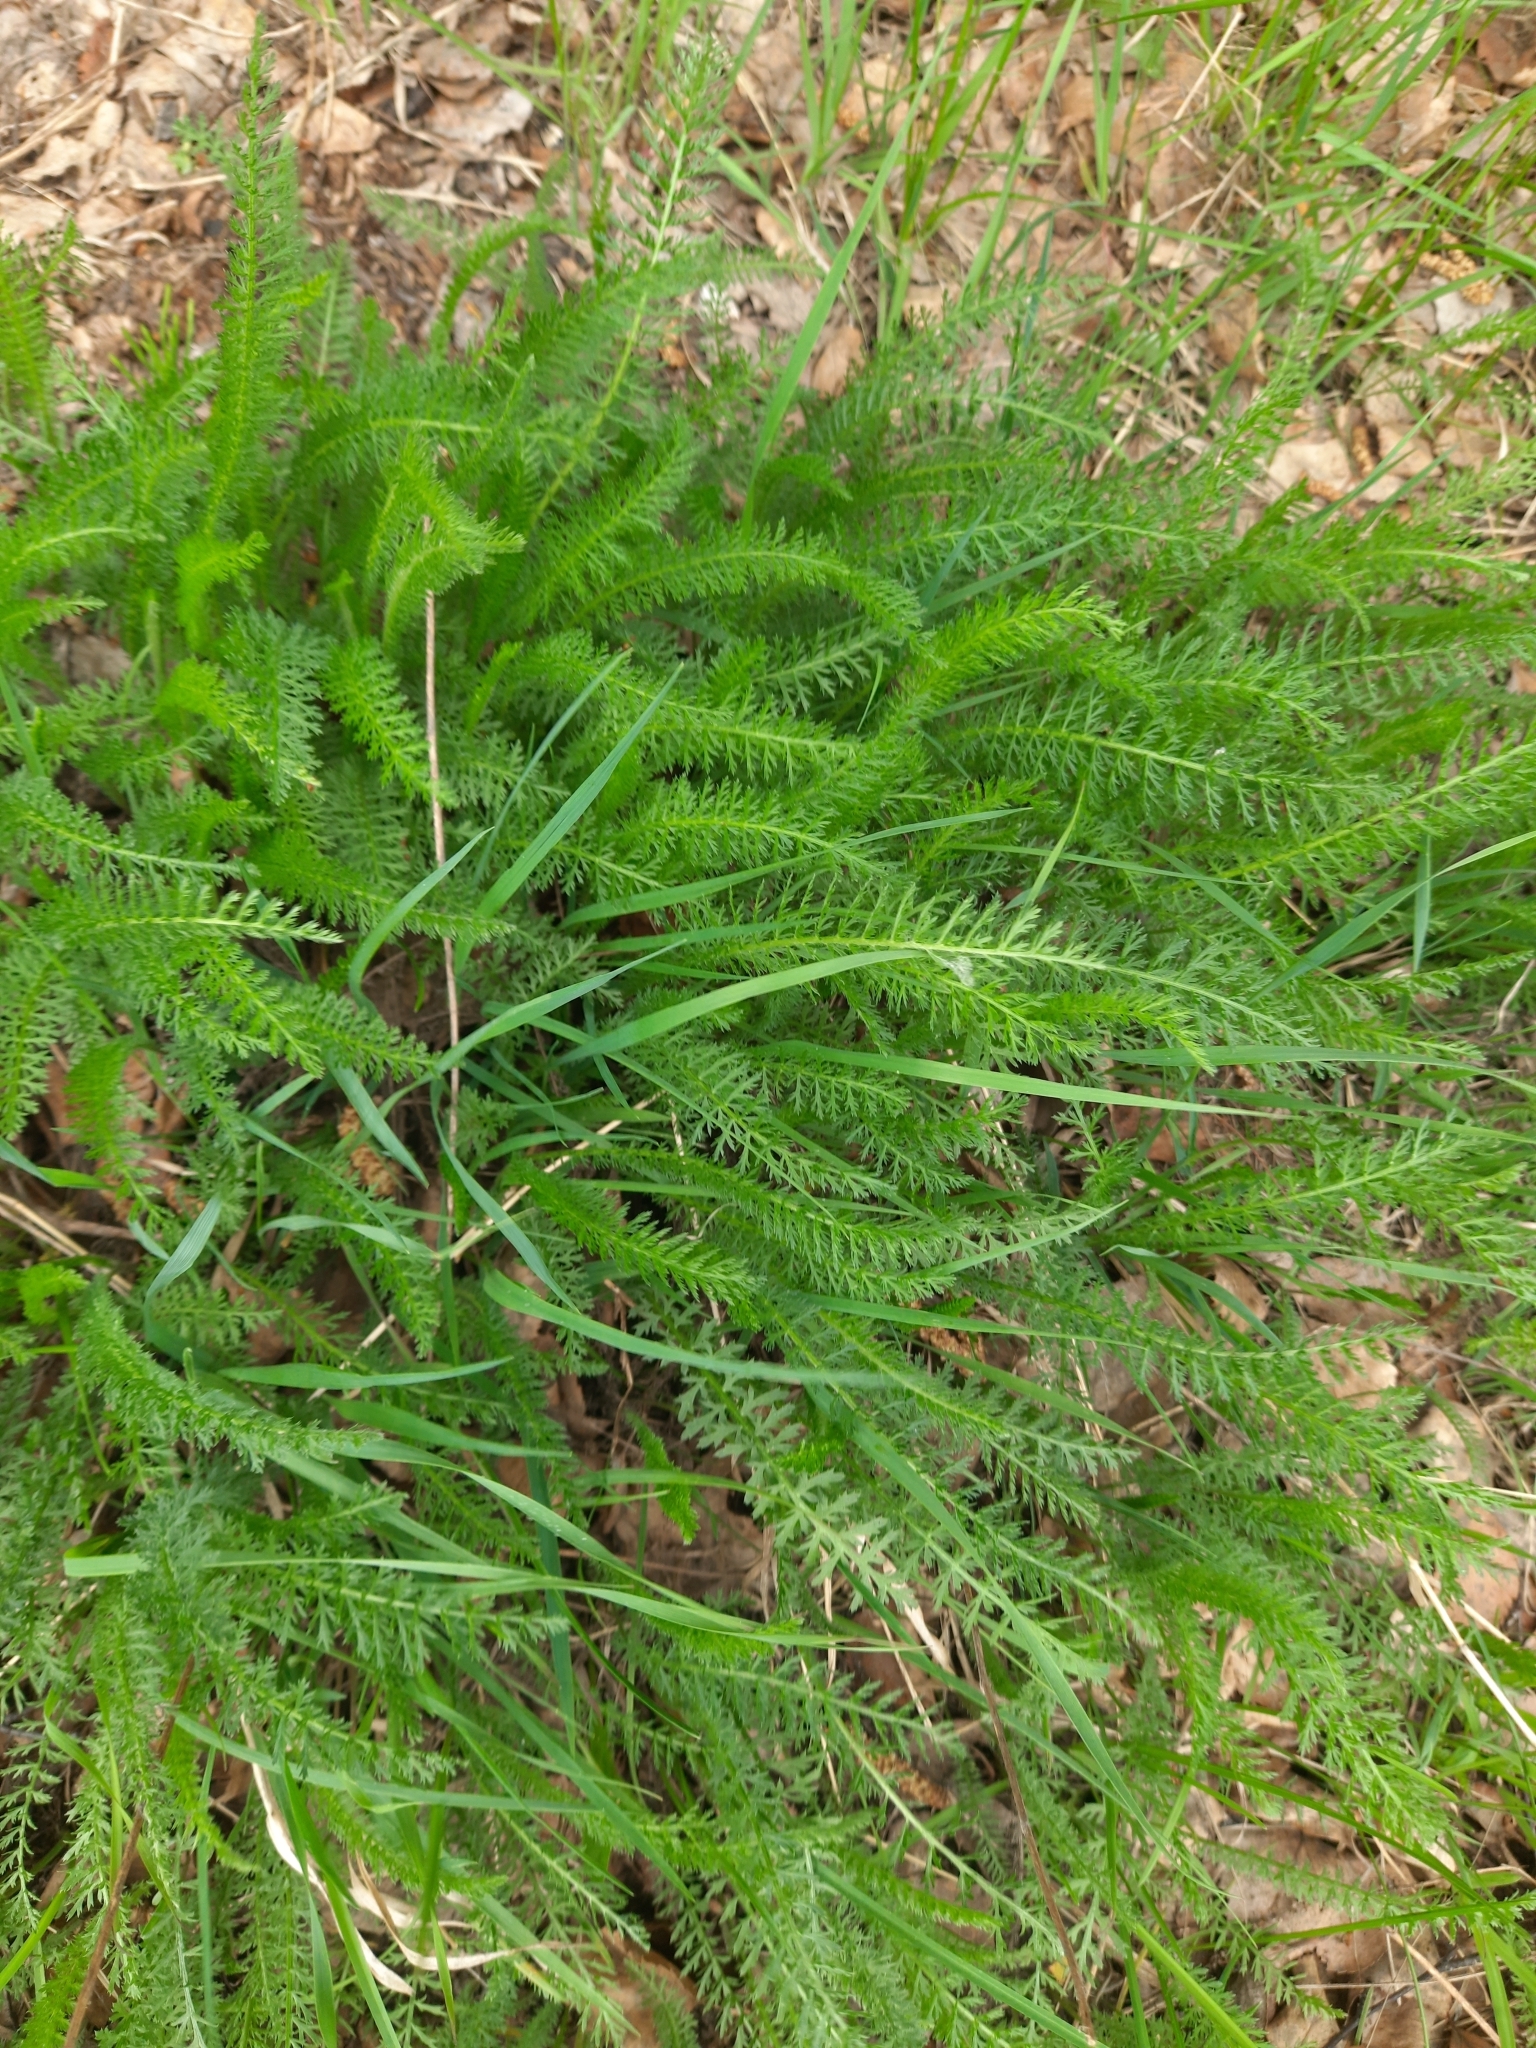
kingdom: Plantae
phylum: Tracheophyta
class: Magnoliopsida
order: Asterales
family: Asteraceae
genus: Achillea
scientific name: Achillea millefolium
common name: Yarrow
